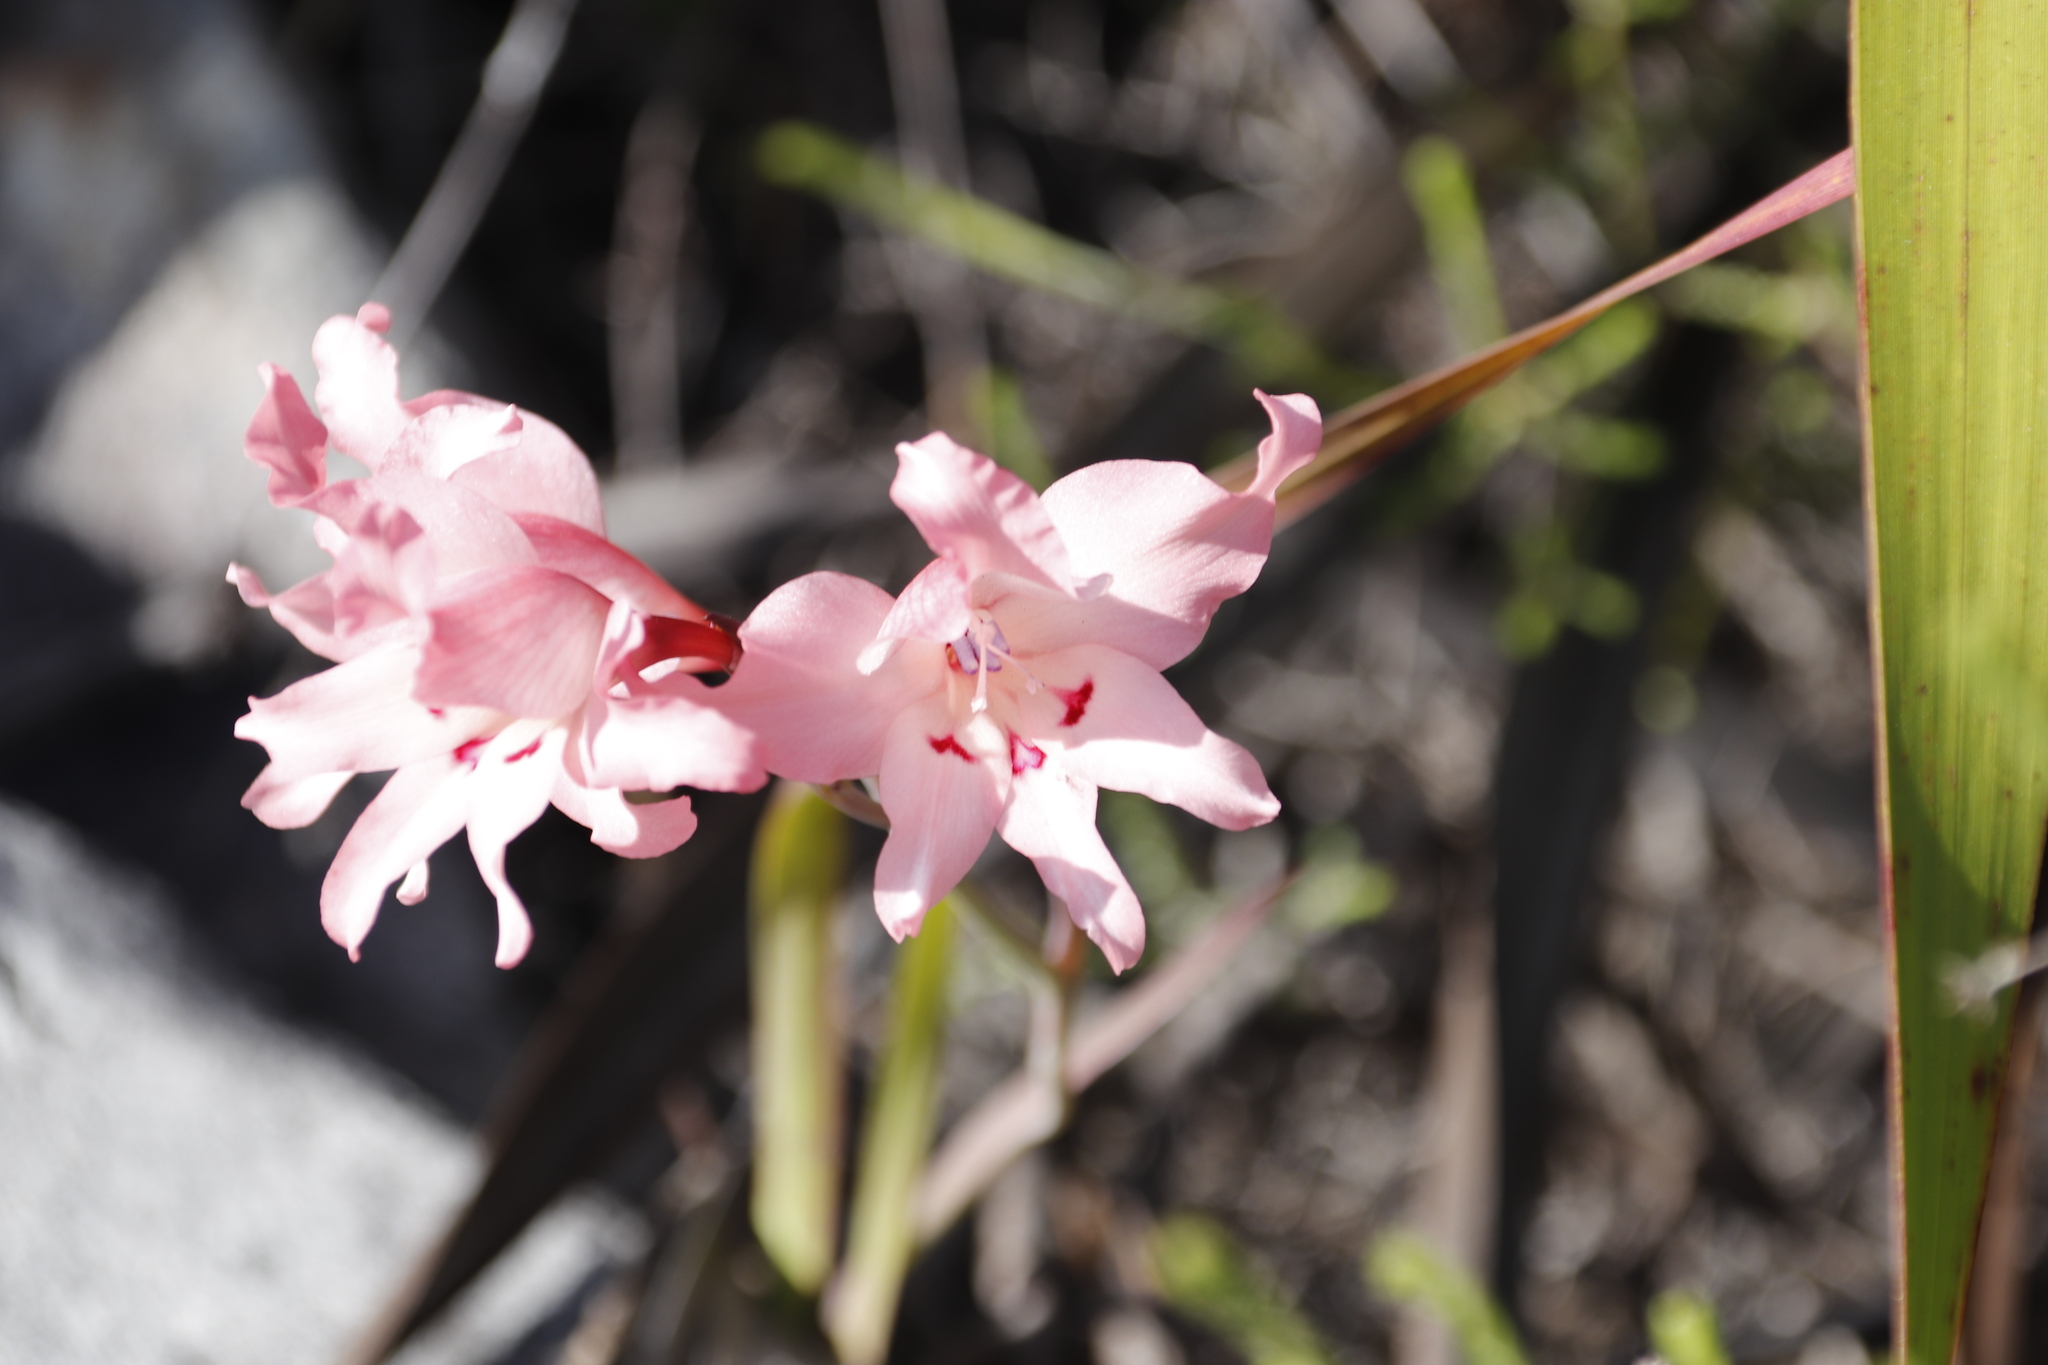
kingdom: Plantae
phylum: Tracheophyta
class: Liliopsida
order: Asparagales
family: Iridaceae
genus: Gladiolus
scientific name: Gladiolus carneus
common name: Painted-lady
